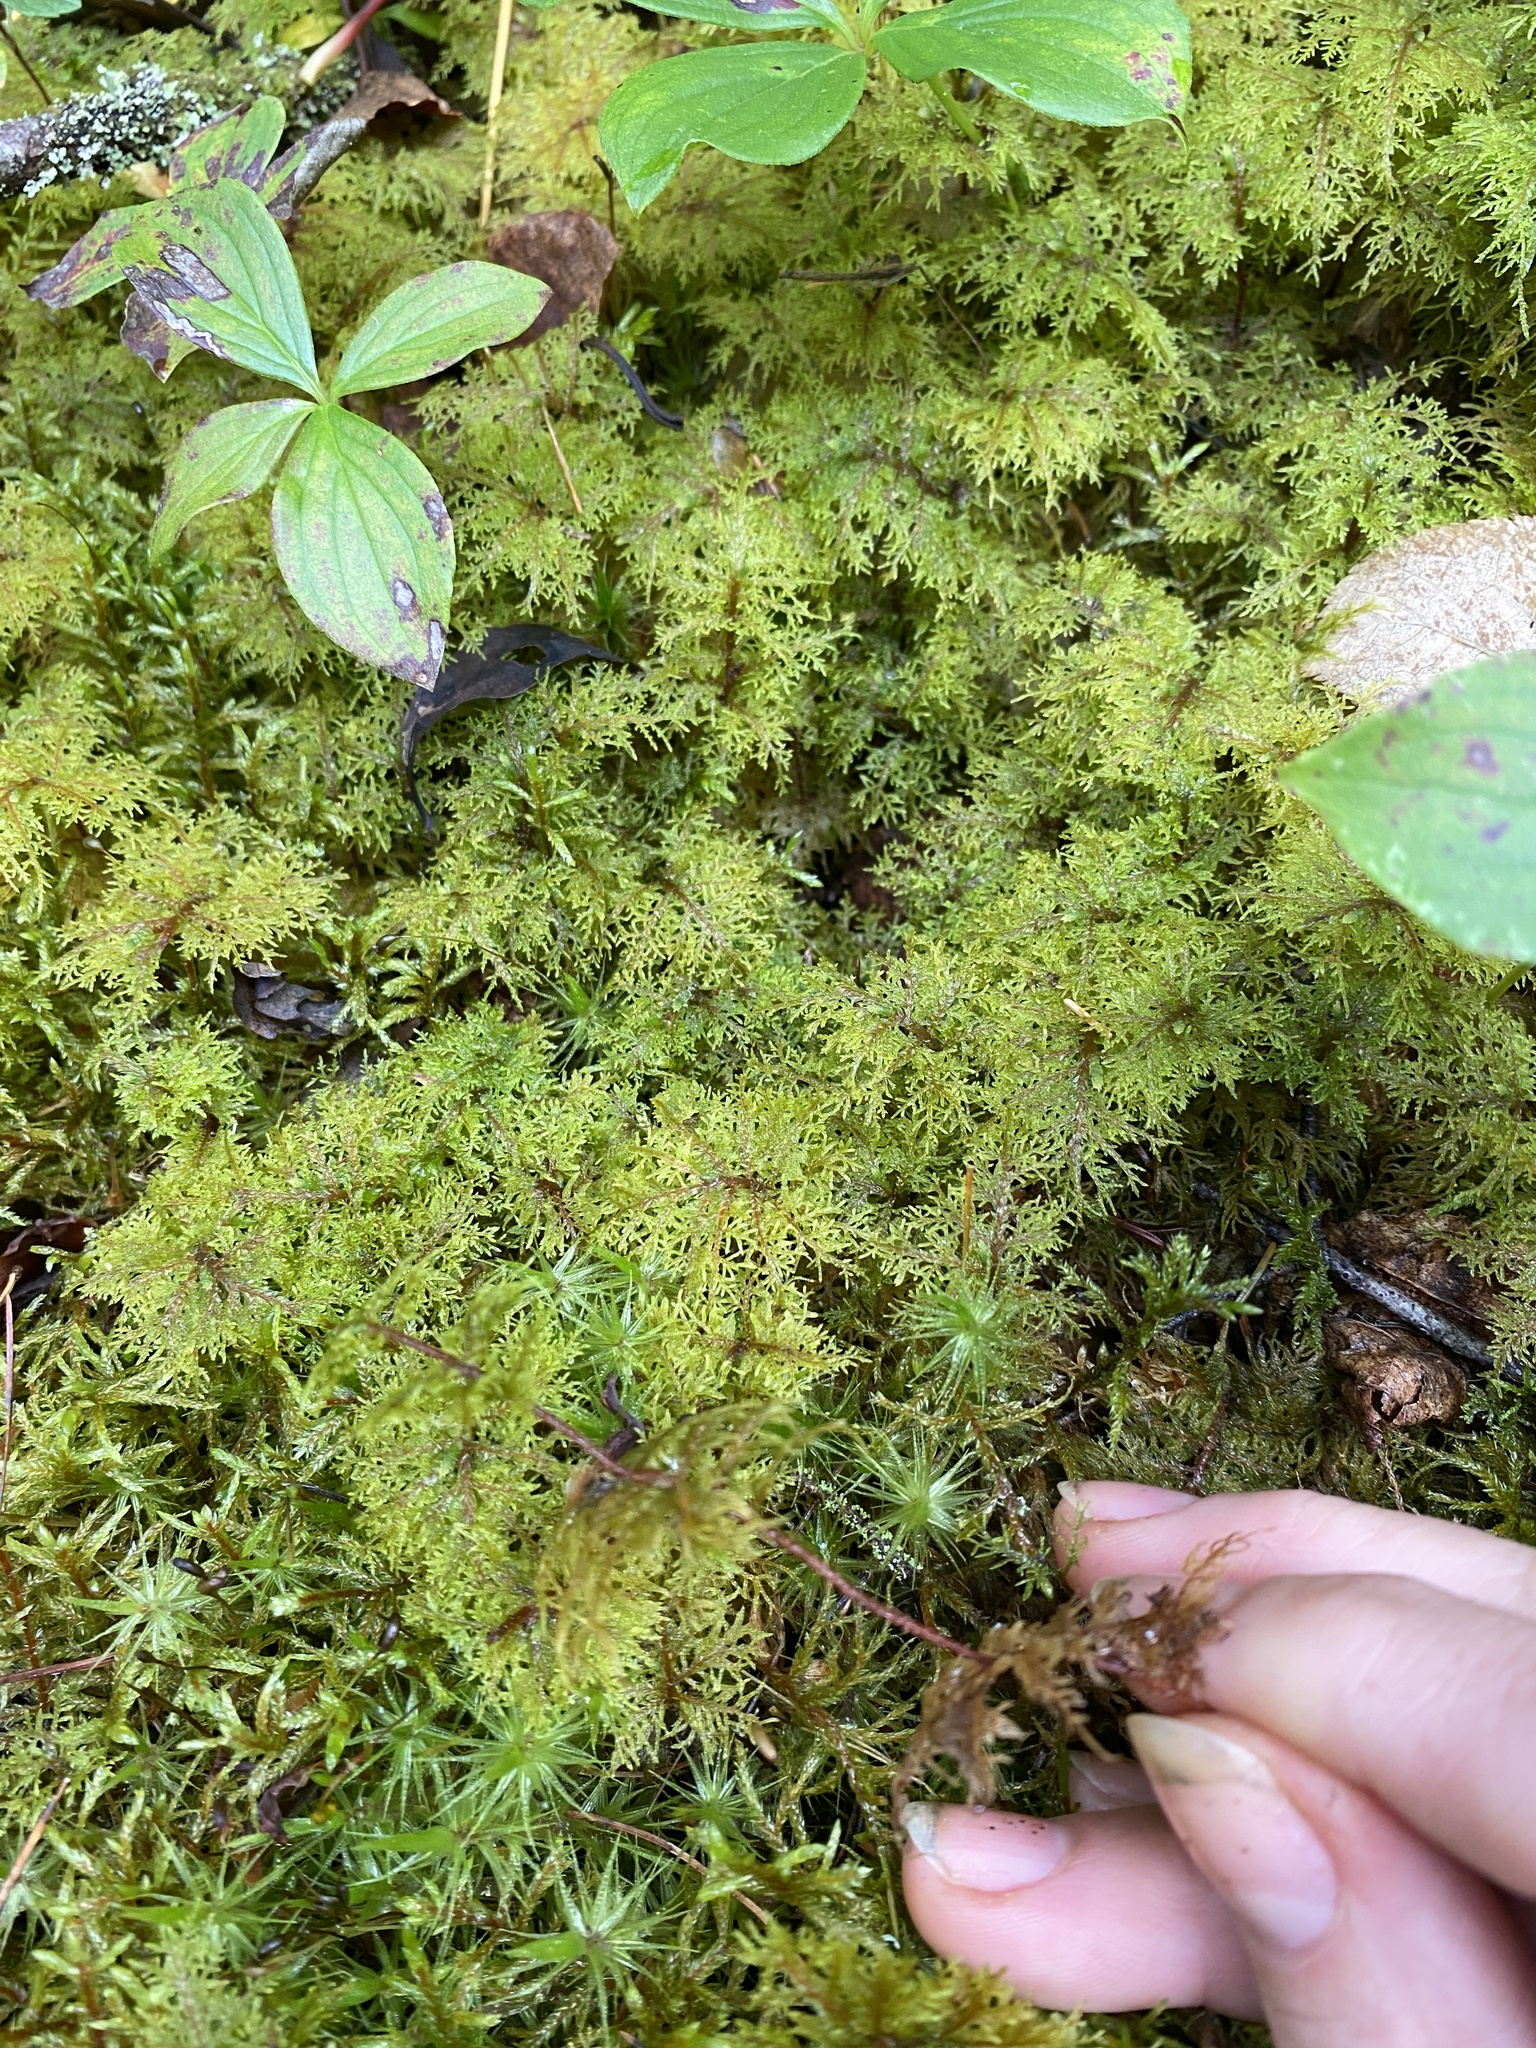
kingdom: Plantae
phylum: Bryophyta
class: Bryopsida
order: Hypnales
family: Hylocomiaceae
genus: Hylocomium
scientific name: Hylocomium splendens
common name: Stairstep moss
